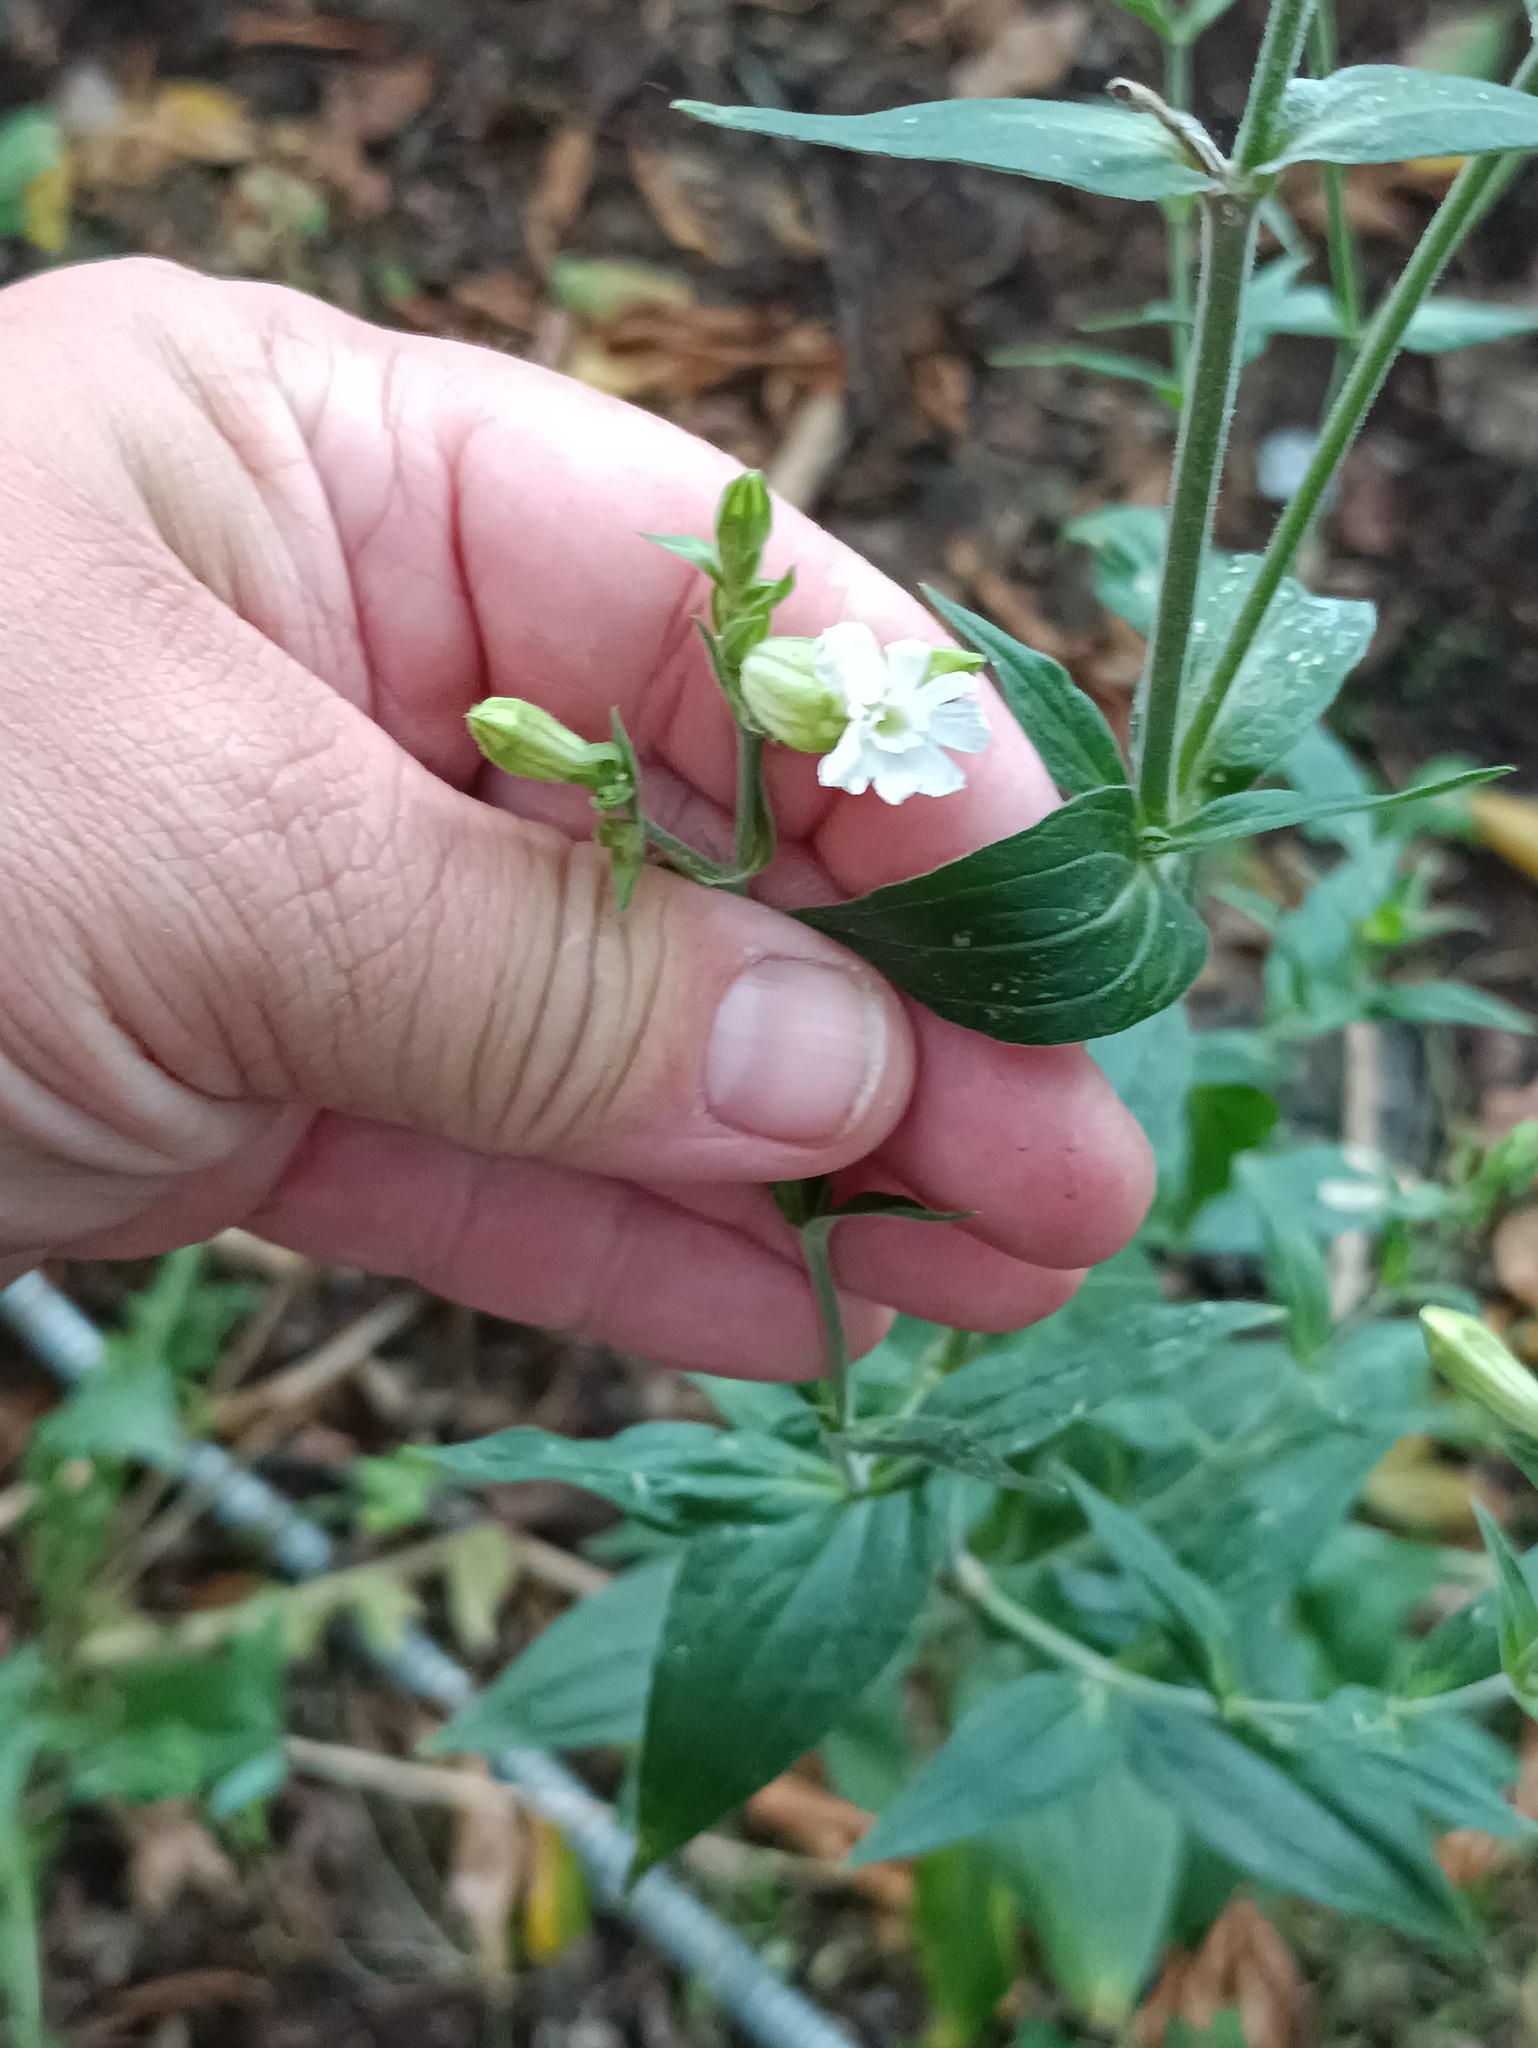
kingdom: Plantae
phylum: Tracheophyta
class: Magnoliopsida
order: Caryophyllales
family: Caryophyllaceae
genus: Silene
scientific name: Silene latifolia
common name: White campion
